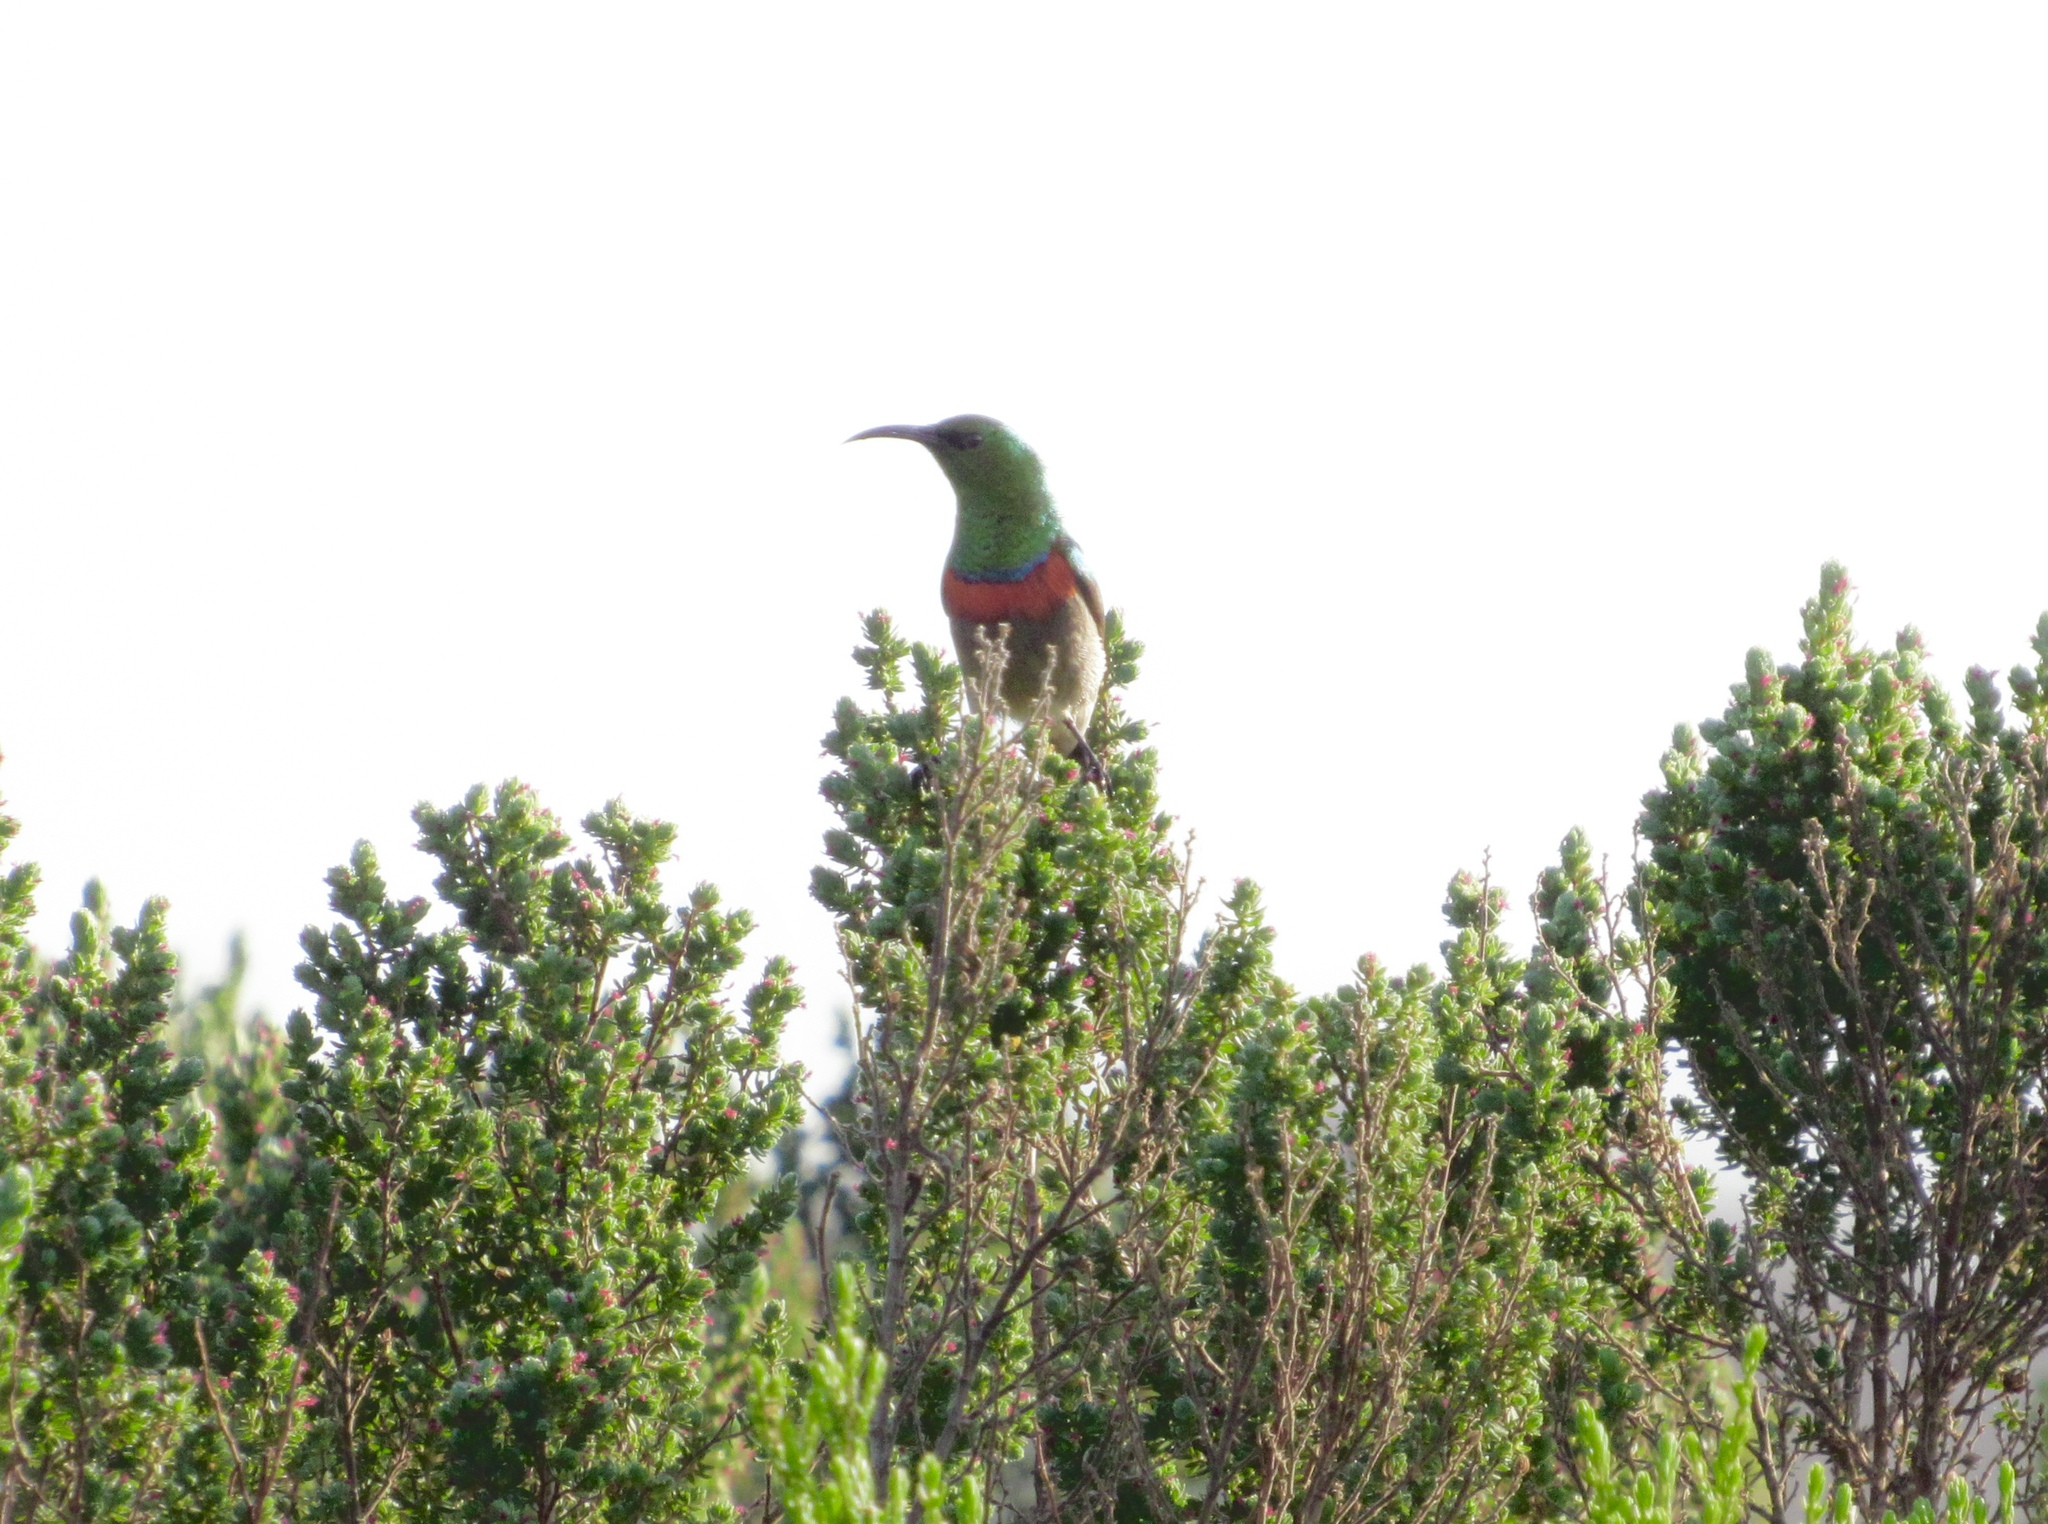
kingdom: Animalia
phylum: Chordata
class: Aves
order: Passeriformes
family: Nectariniidae
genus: Cinnyris
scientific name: Cinnyris chalybeus
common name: Southern double-collared sunbird
